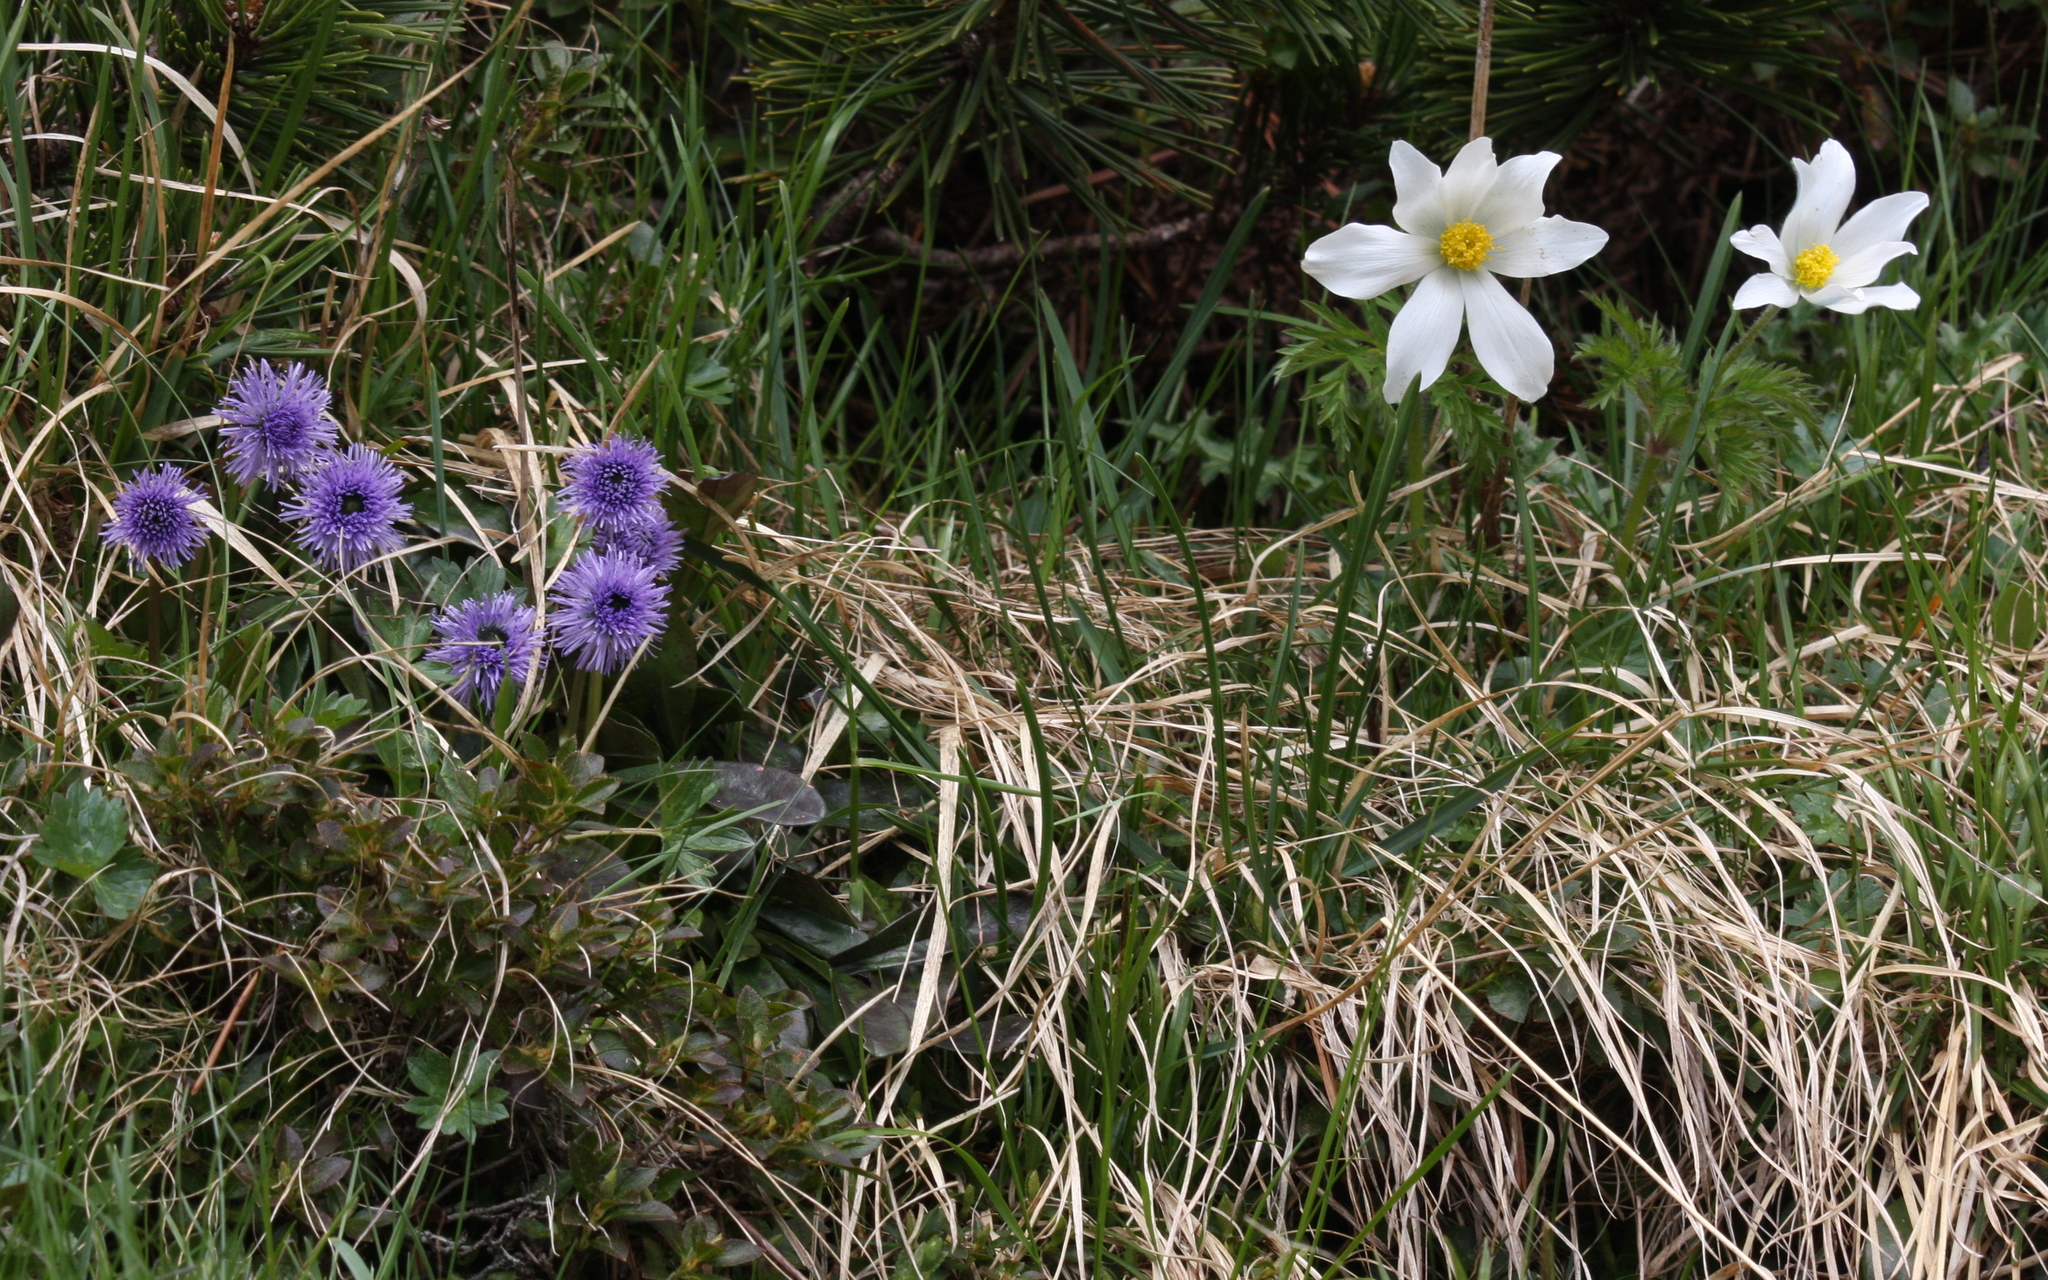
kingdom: Plantae
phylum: Tracheophyta
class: Magnoliopsida
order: Ranunculales
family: Ranunculaceae
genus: Pulsatilla
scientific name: Pulsatilla alpina
